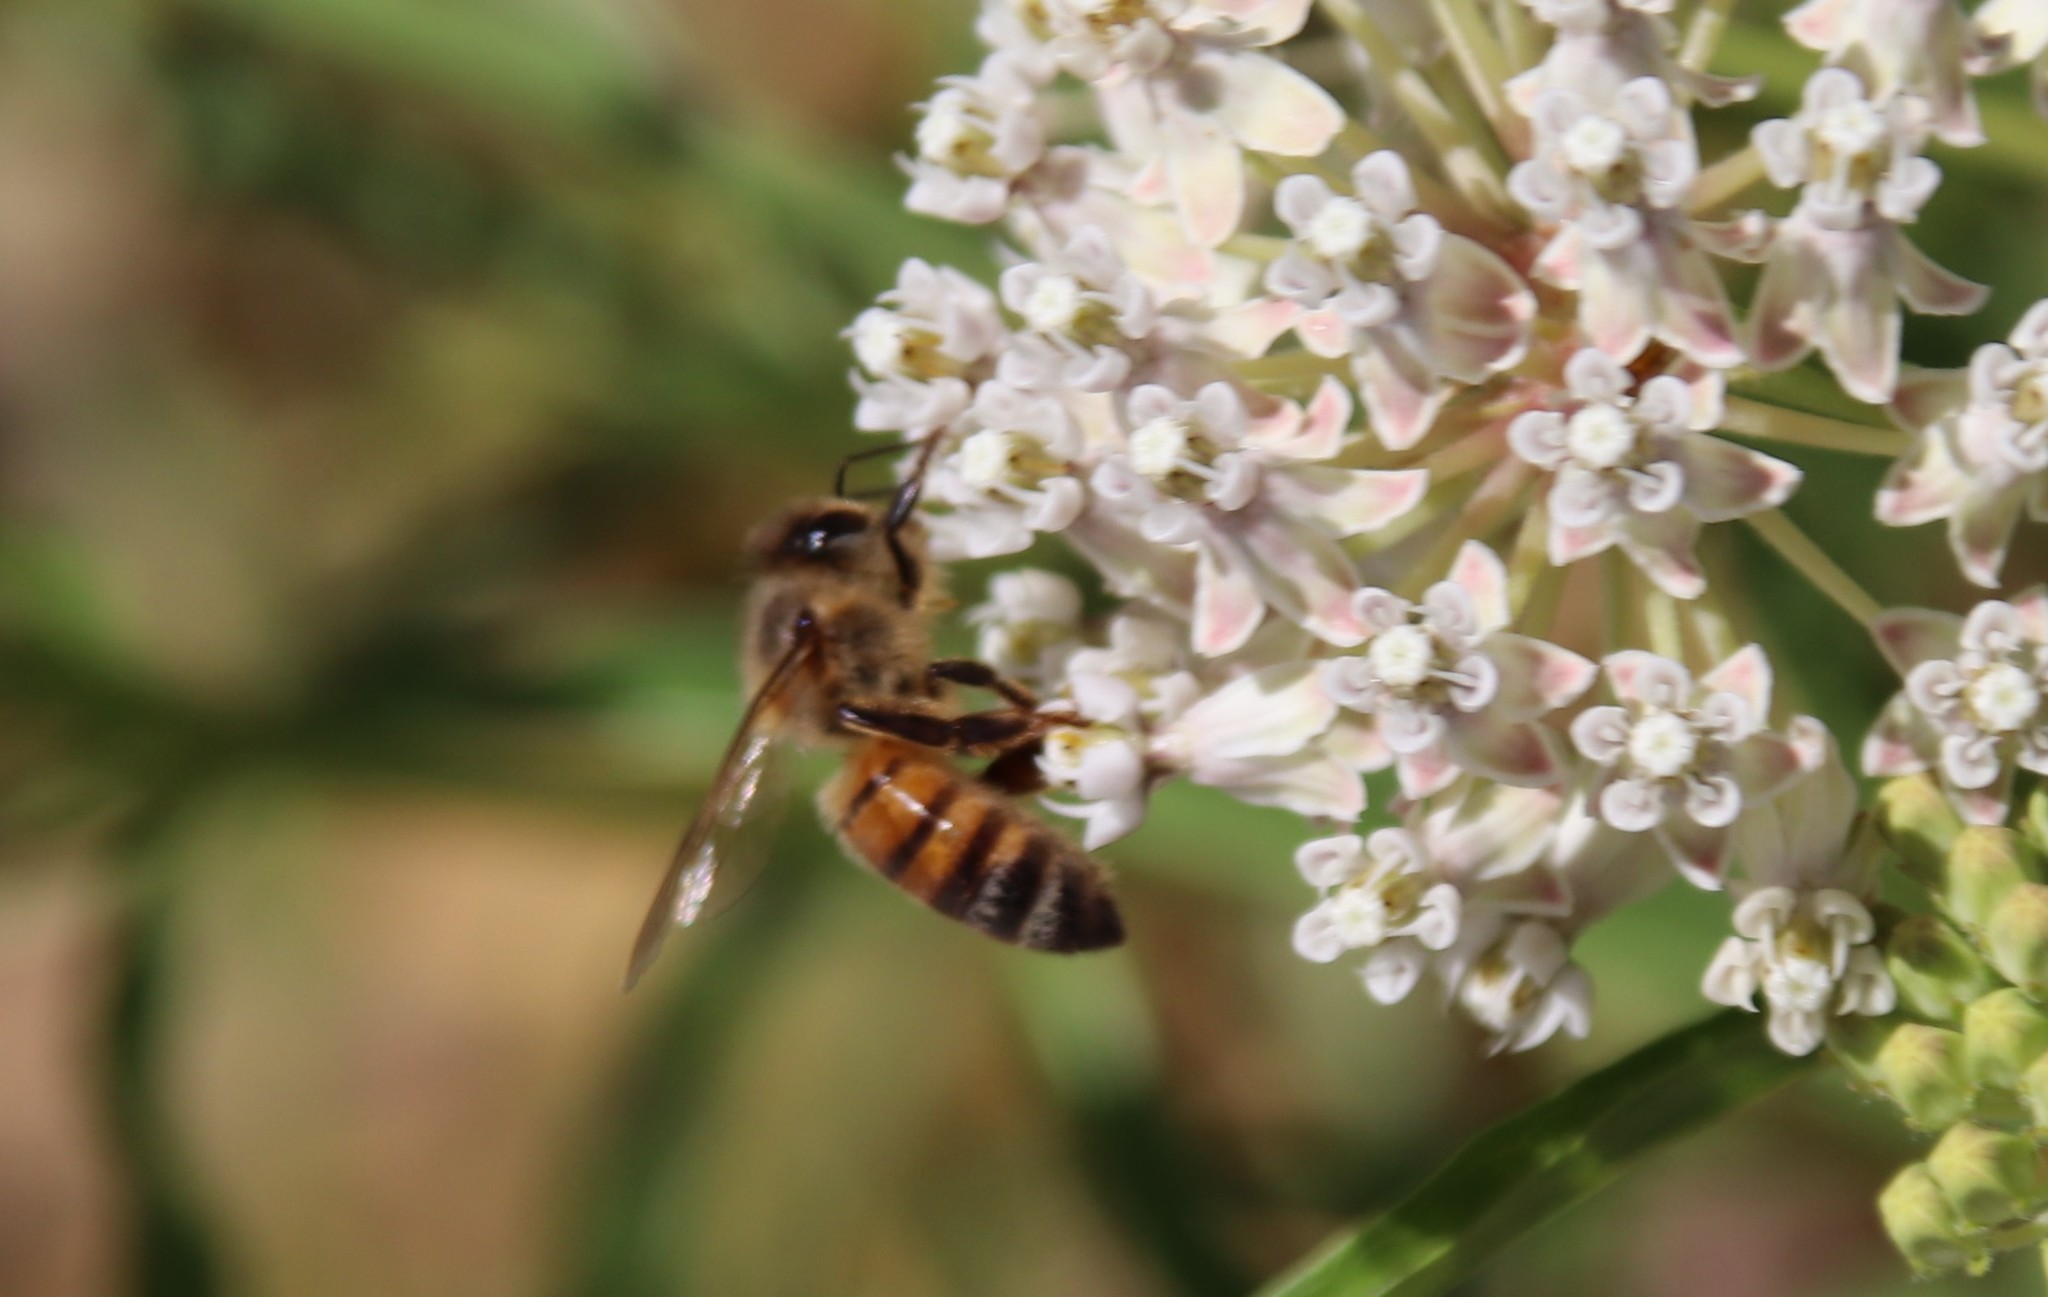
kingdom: Animalia
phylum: Arthropoda
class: Insecta
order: Hymenoptera
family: Apidae
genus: Apis
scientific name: Apis mellifera
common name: Honey bee
